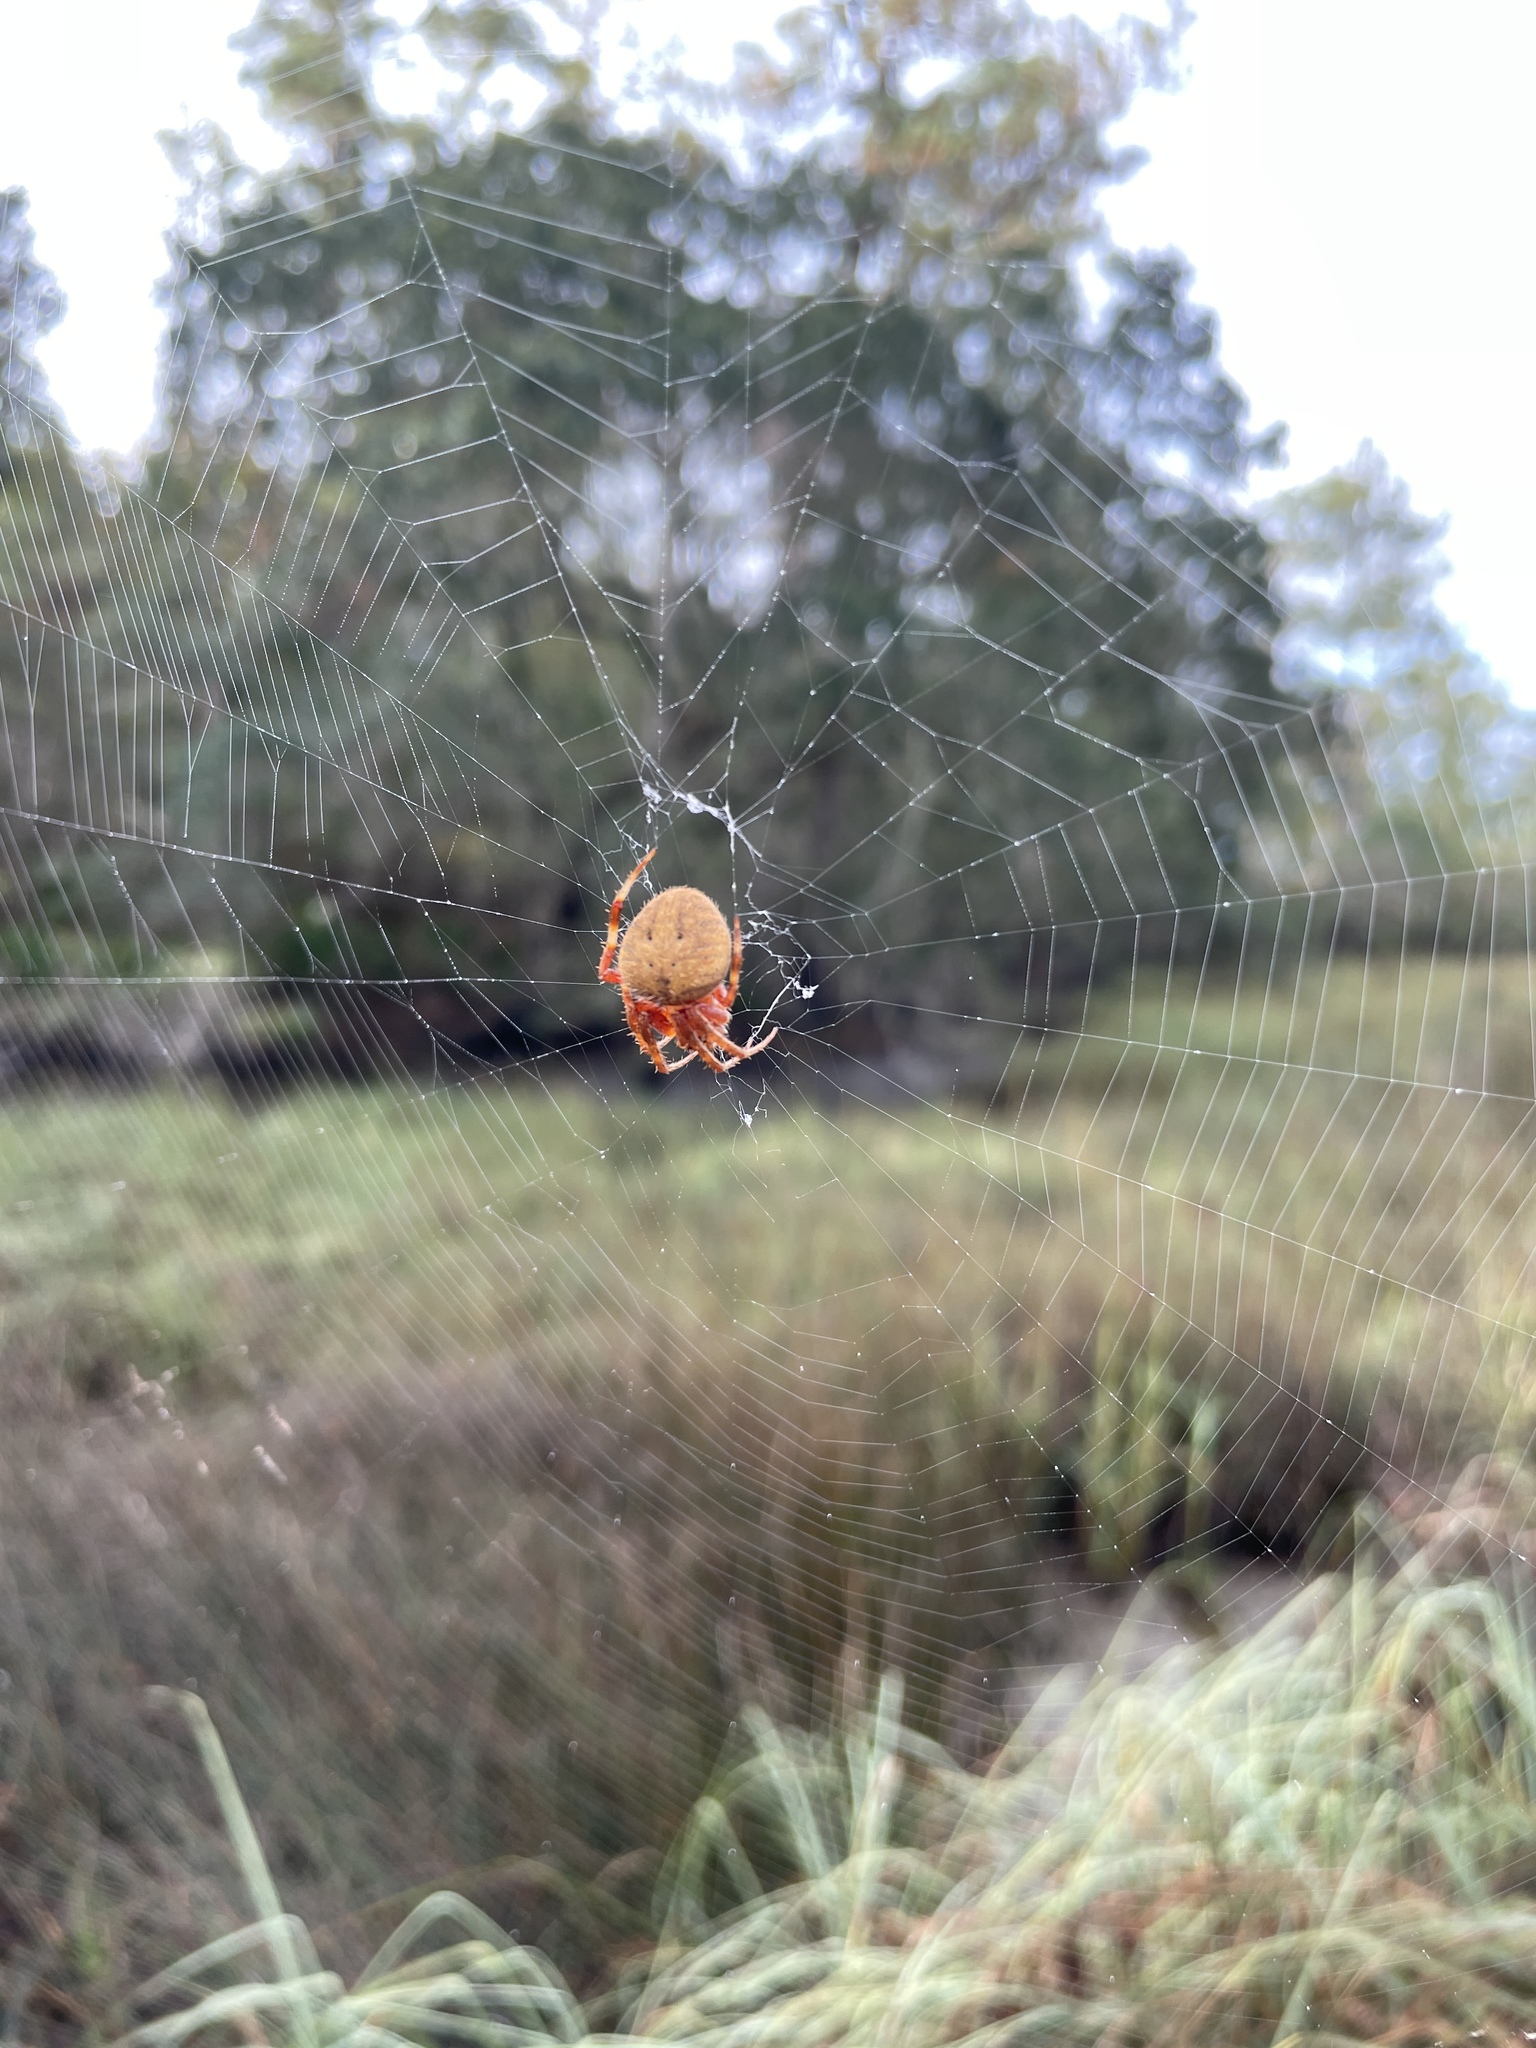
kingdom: Animalia
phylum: Arthropoda
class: Arachnida
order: Araneae
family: Araneidae
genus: Neoscona
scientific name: Neoscona crucifera
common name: Spotted orbweaver
